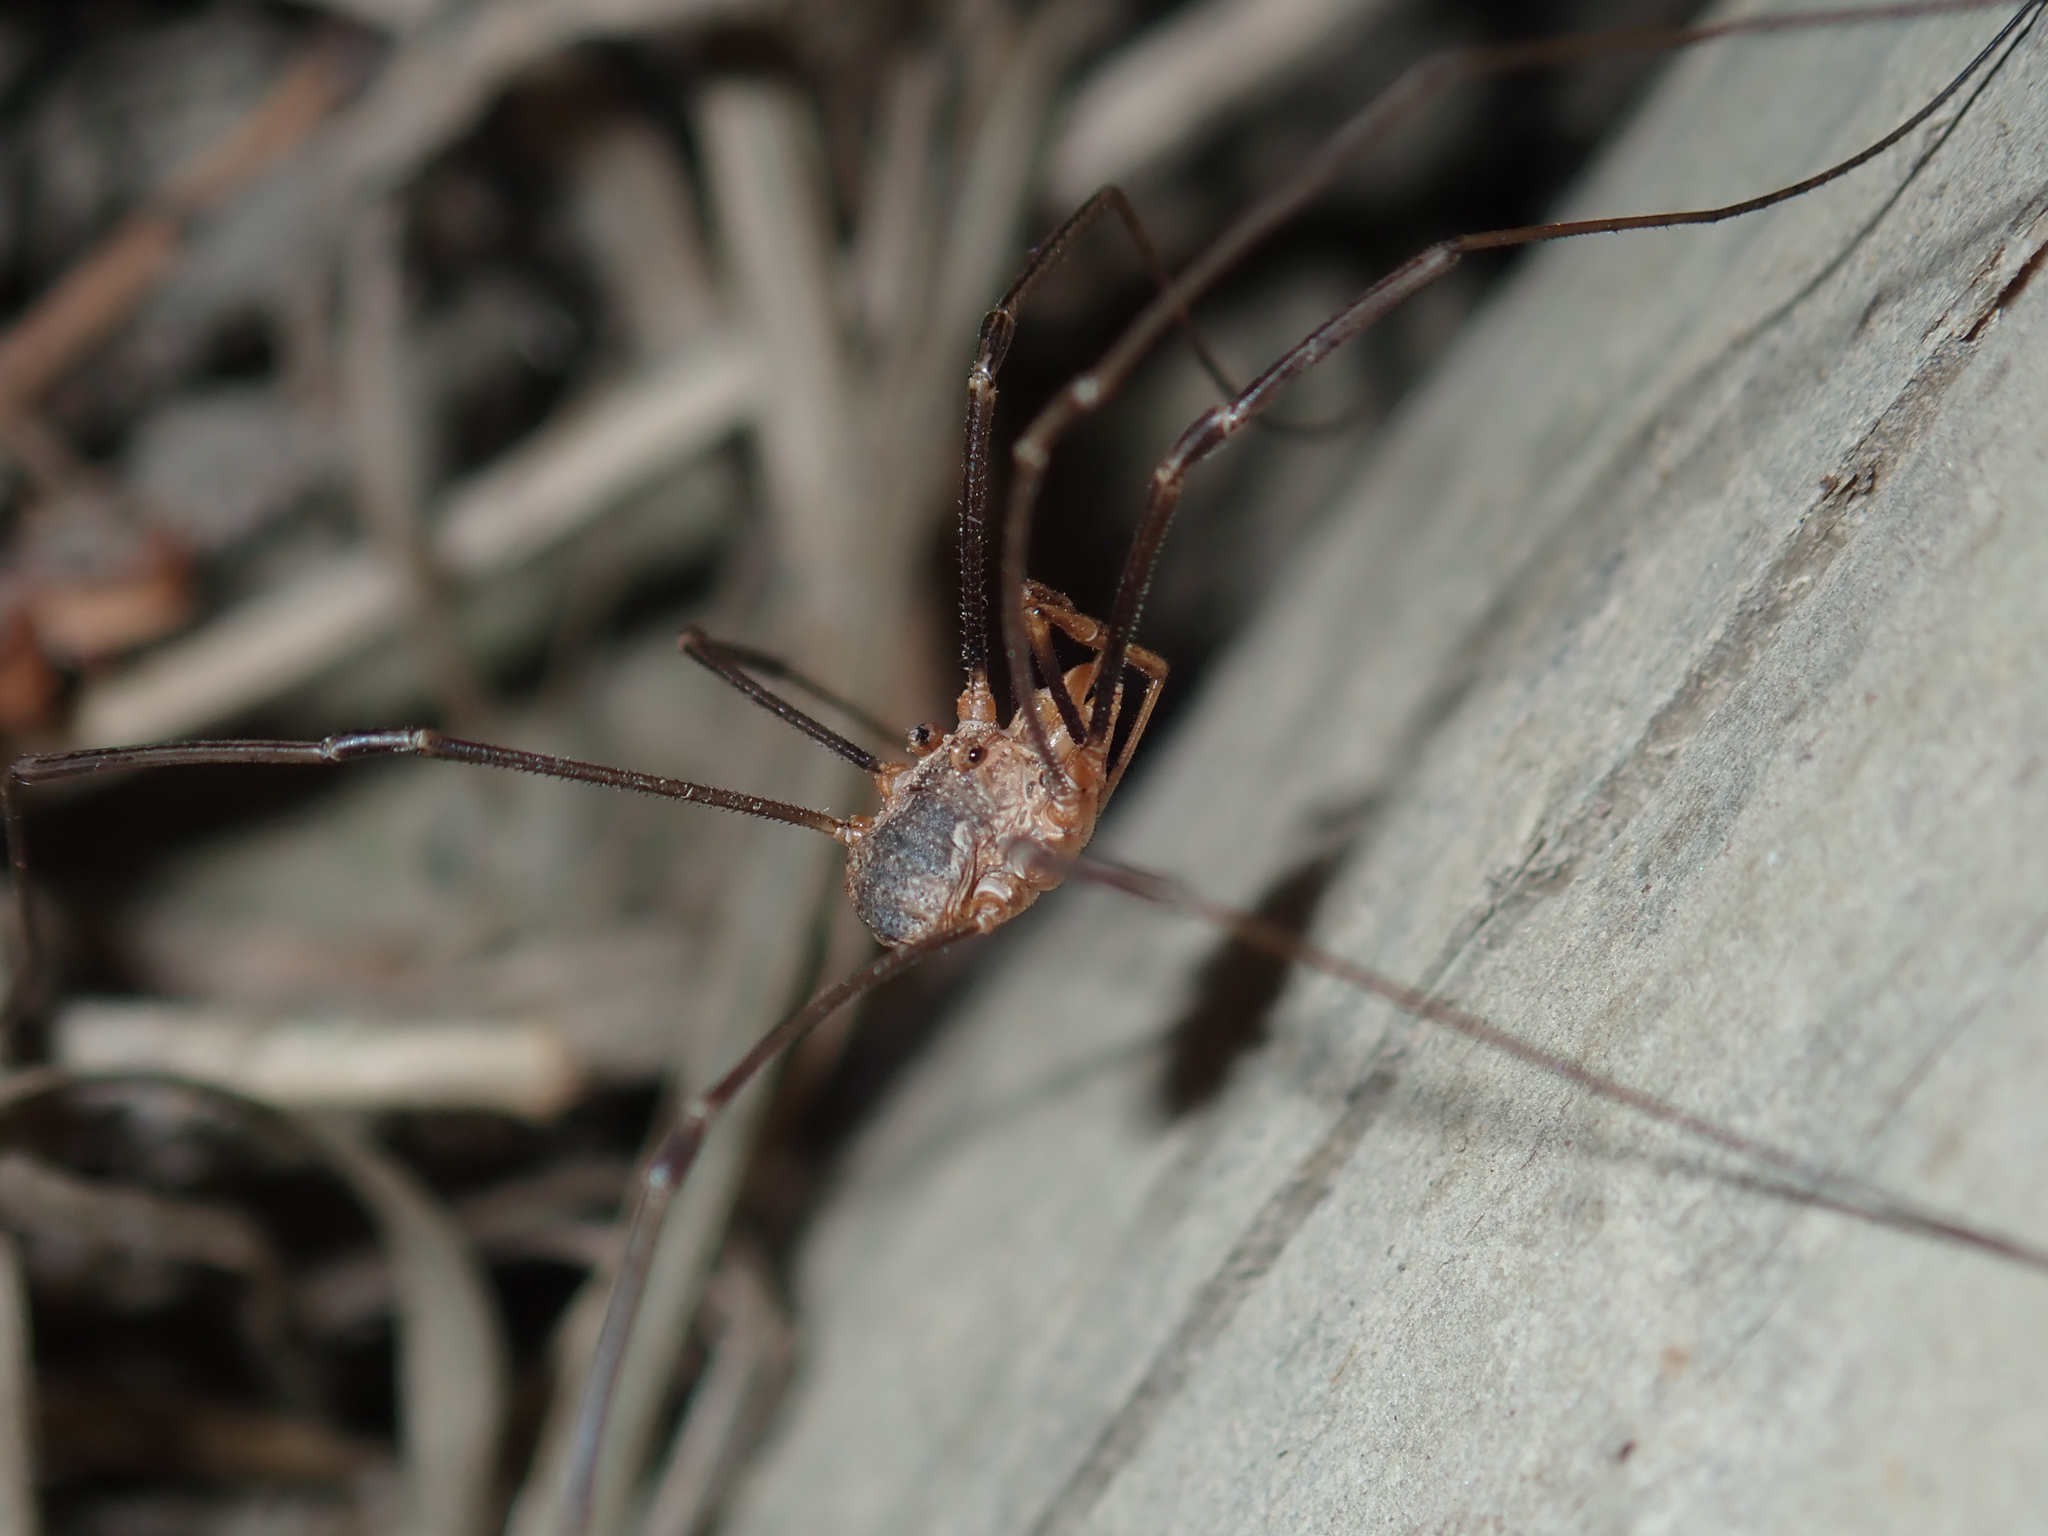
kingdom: Animalia
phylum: Arthropoda
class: Arachnida
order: Opiliones
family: Phalangiidae
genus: Phalangium
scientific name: Phalangium opilio
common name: Daddy longleg
